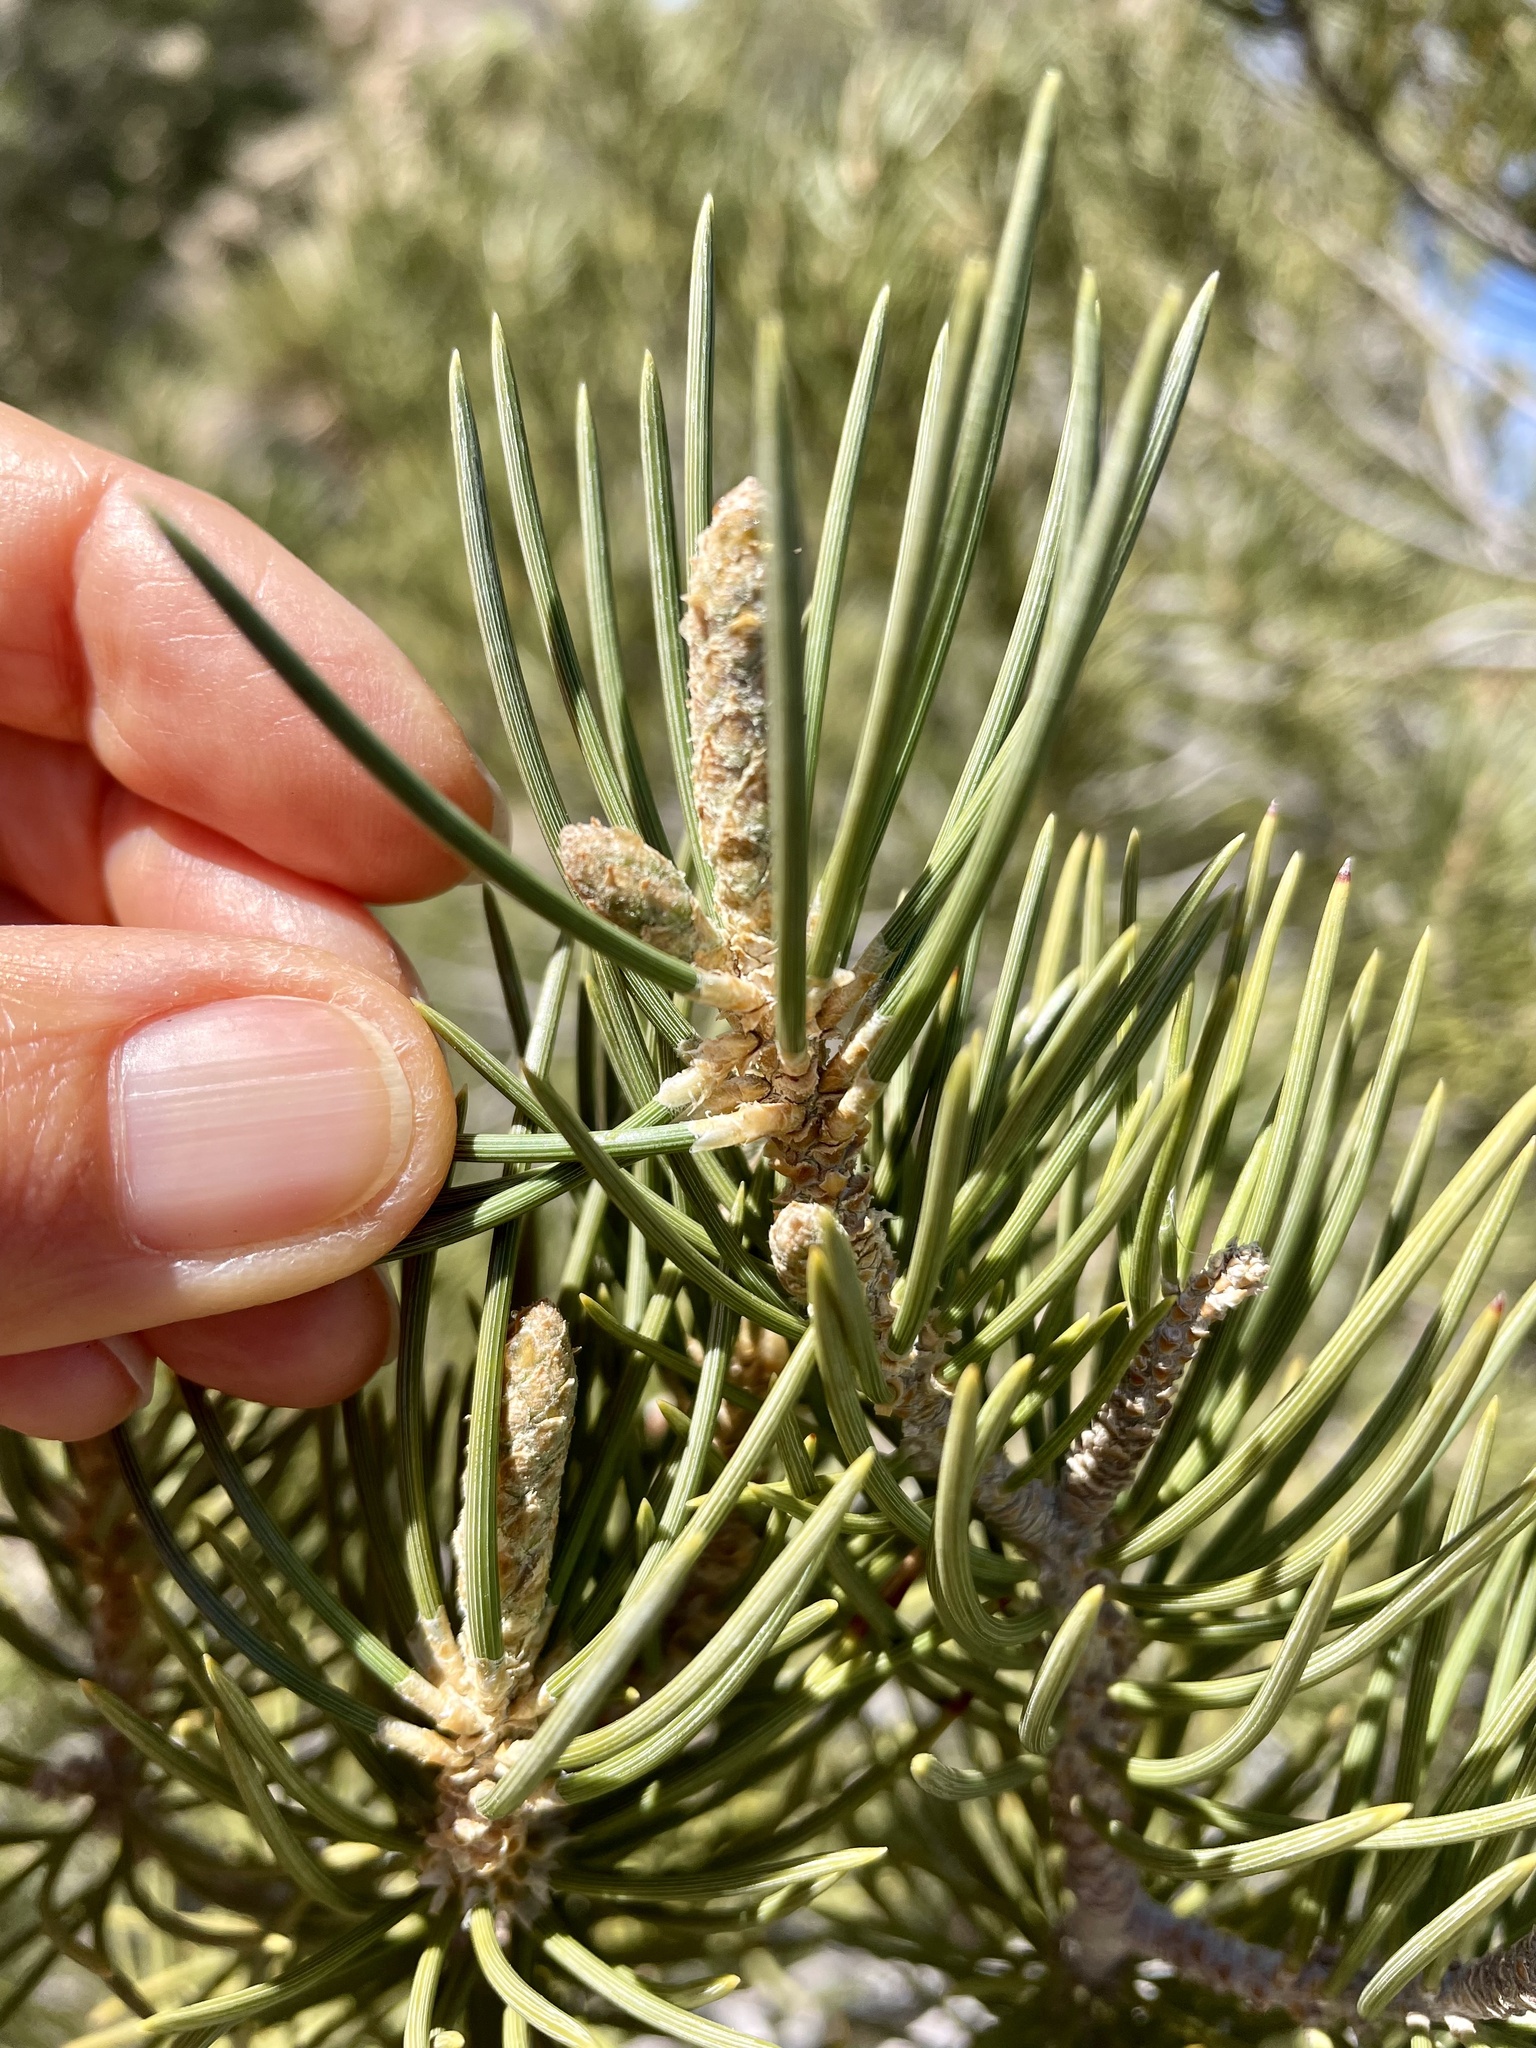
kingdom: Plantae
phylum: Tracheophyta
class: Pinopsida
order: Pinales
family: Pinaceae
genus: Pinus
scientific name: Pinus monophylla
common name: One-leaved nut pine
